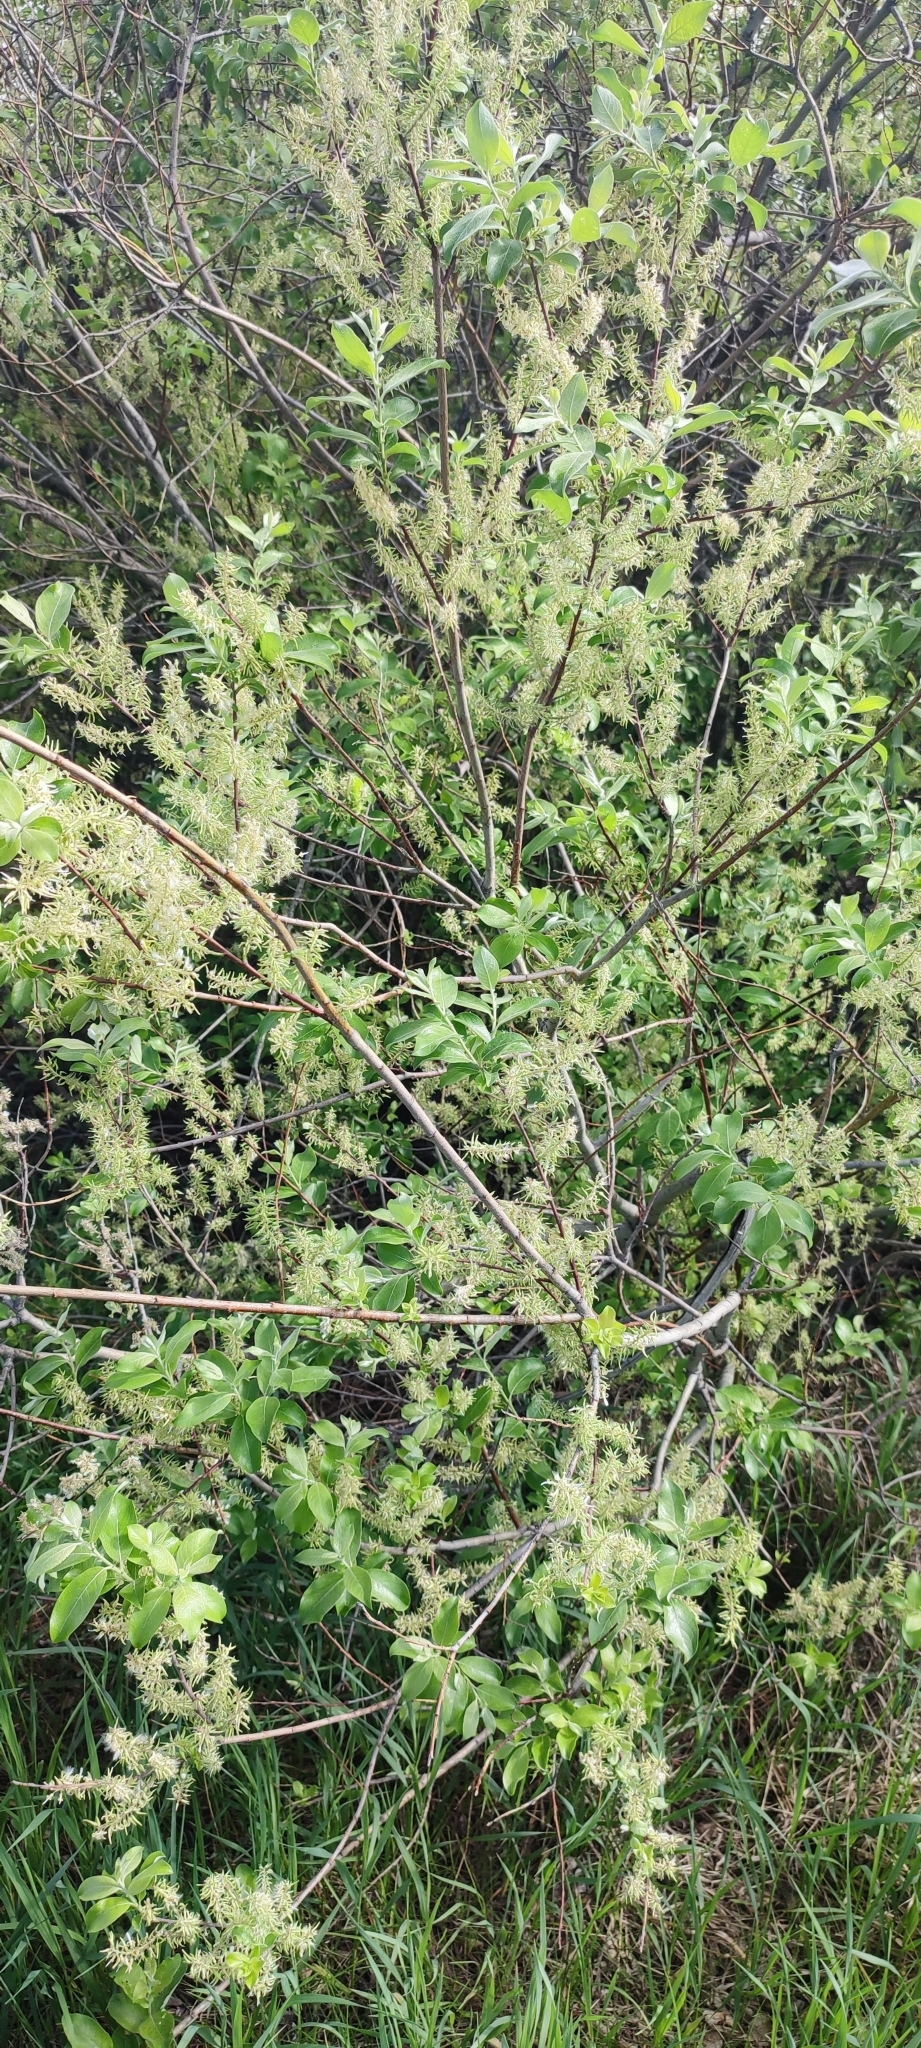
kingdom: Plantae
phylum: Tracheophyta
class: Magnoliopsida
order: Malpighiales
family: Salicaceae
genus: Salix
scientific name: Salix cinerea
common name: Common sallow
